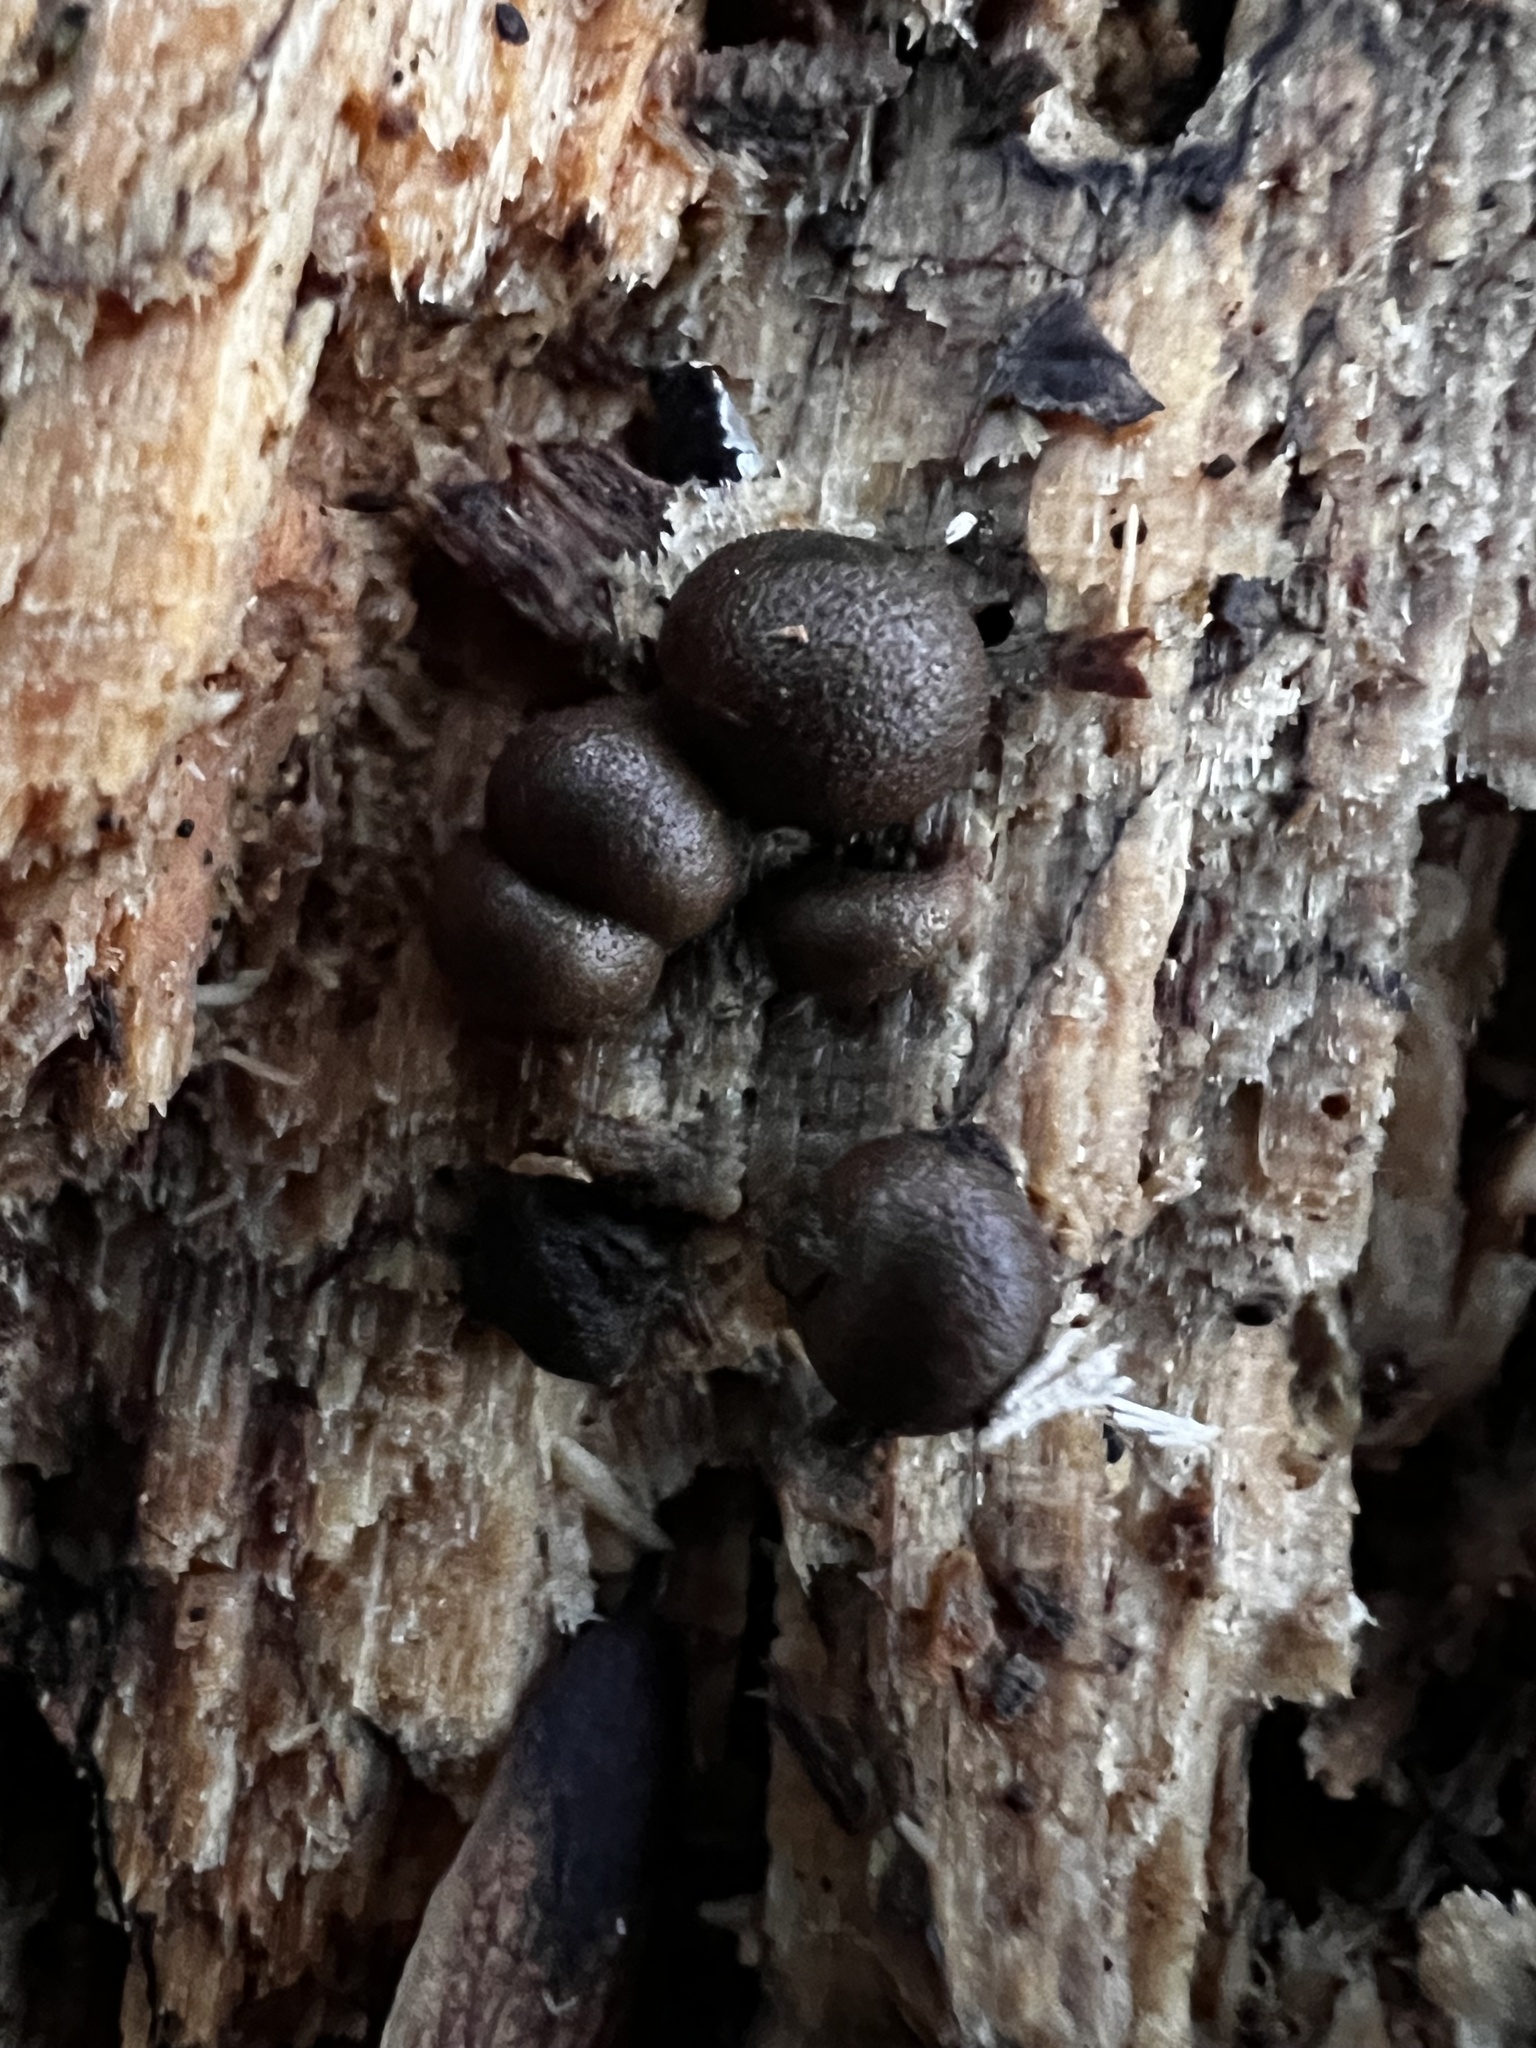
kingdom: Protozoa
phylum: Mycetozoa
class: Myxomycetes
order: Cribrariales
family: Tubiferaceae
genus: Lycogala
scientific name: Lycogala epidendrum
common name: Wolf's milk
